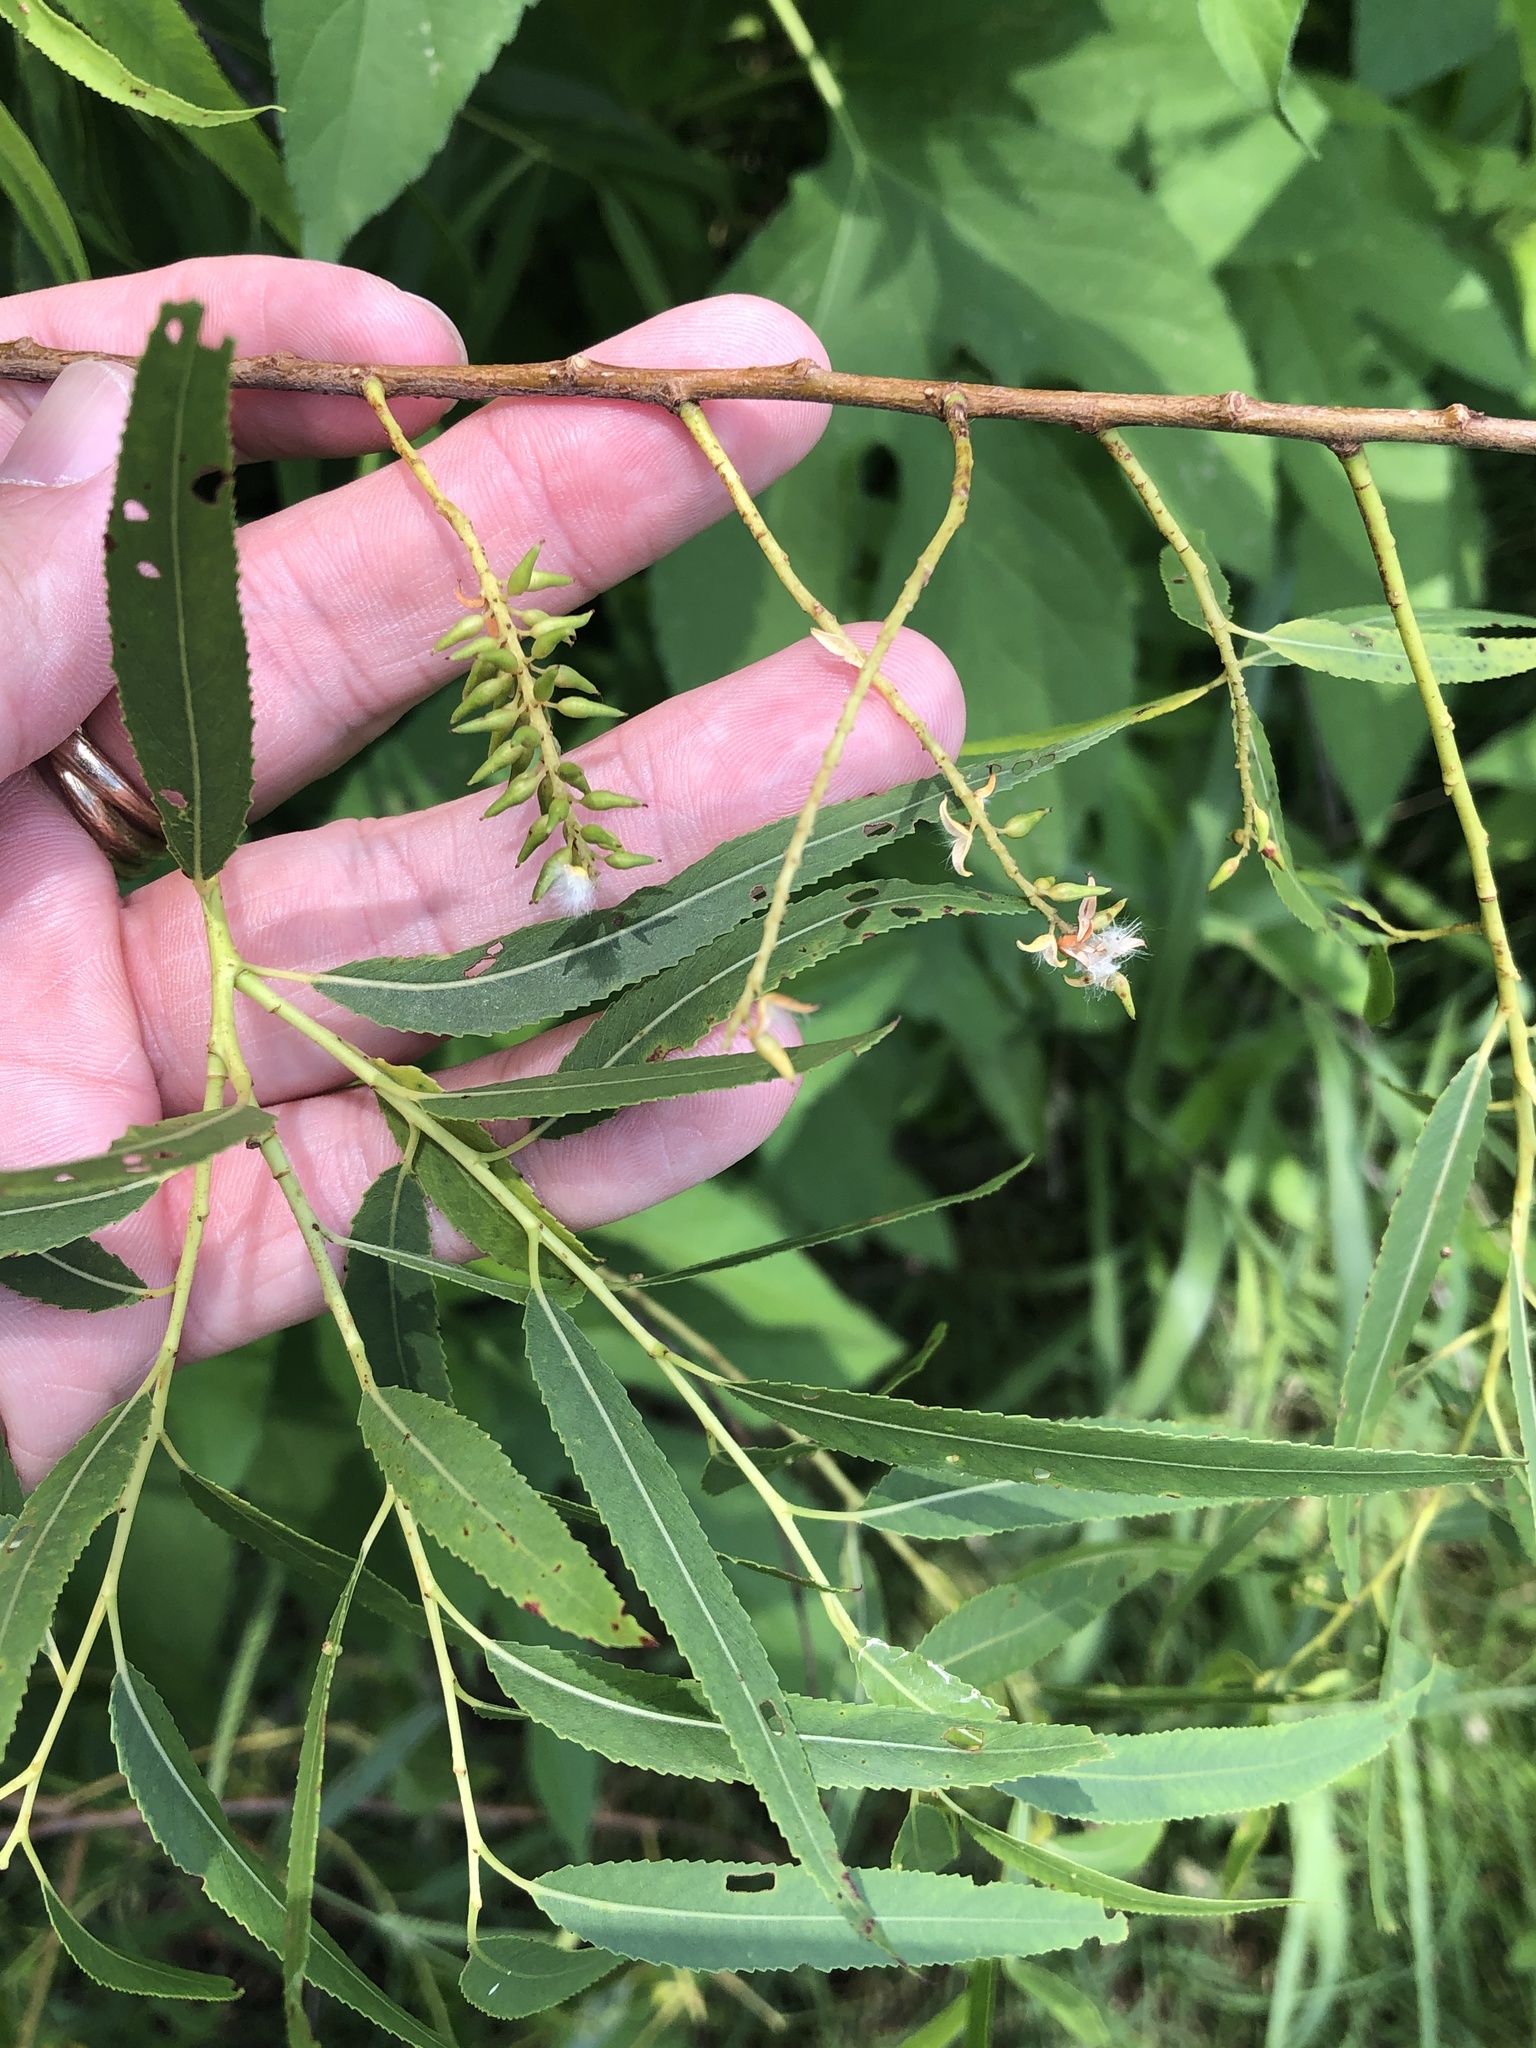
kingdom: Plantae
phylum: Tracheophyta
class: Magnoliopsida
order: Malpighiales
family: Salicaceae
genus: Salix
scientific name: Salix nigra
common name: Black willow
